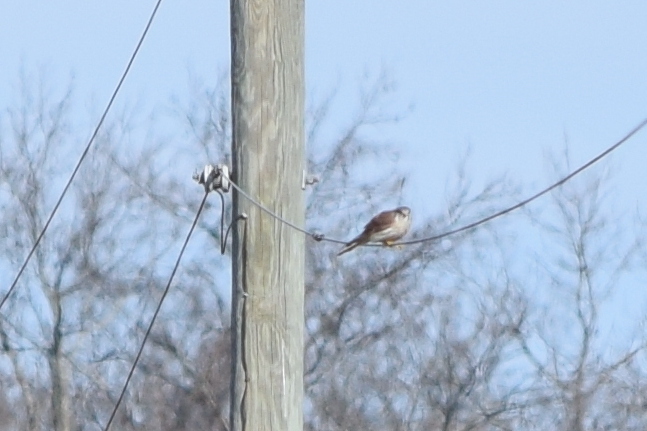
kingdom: Animalia
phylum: Chordata
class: Aves
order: Falconiformes
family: Falconidae
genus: Falco
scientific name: Falco sparverius
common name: American kestrel
